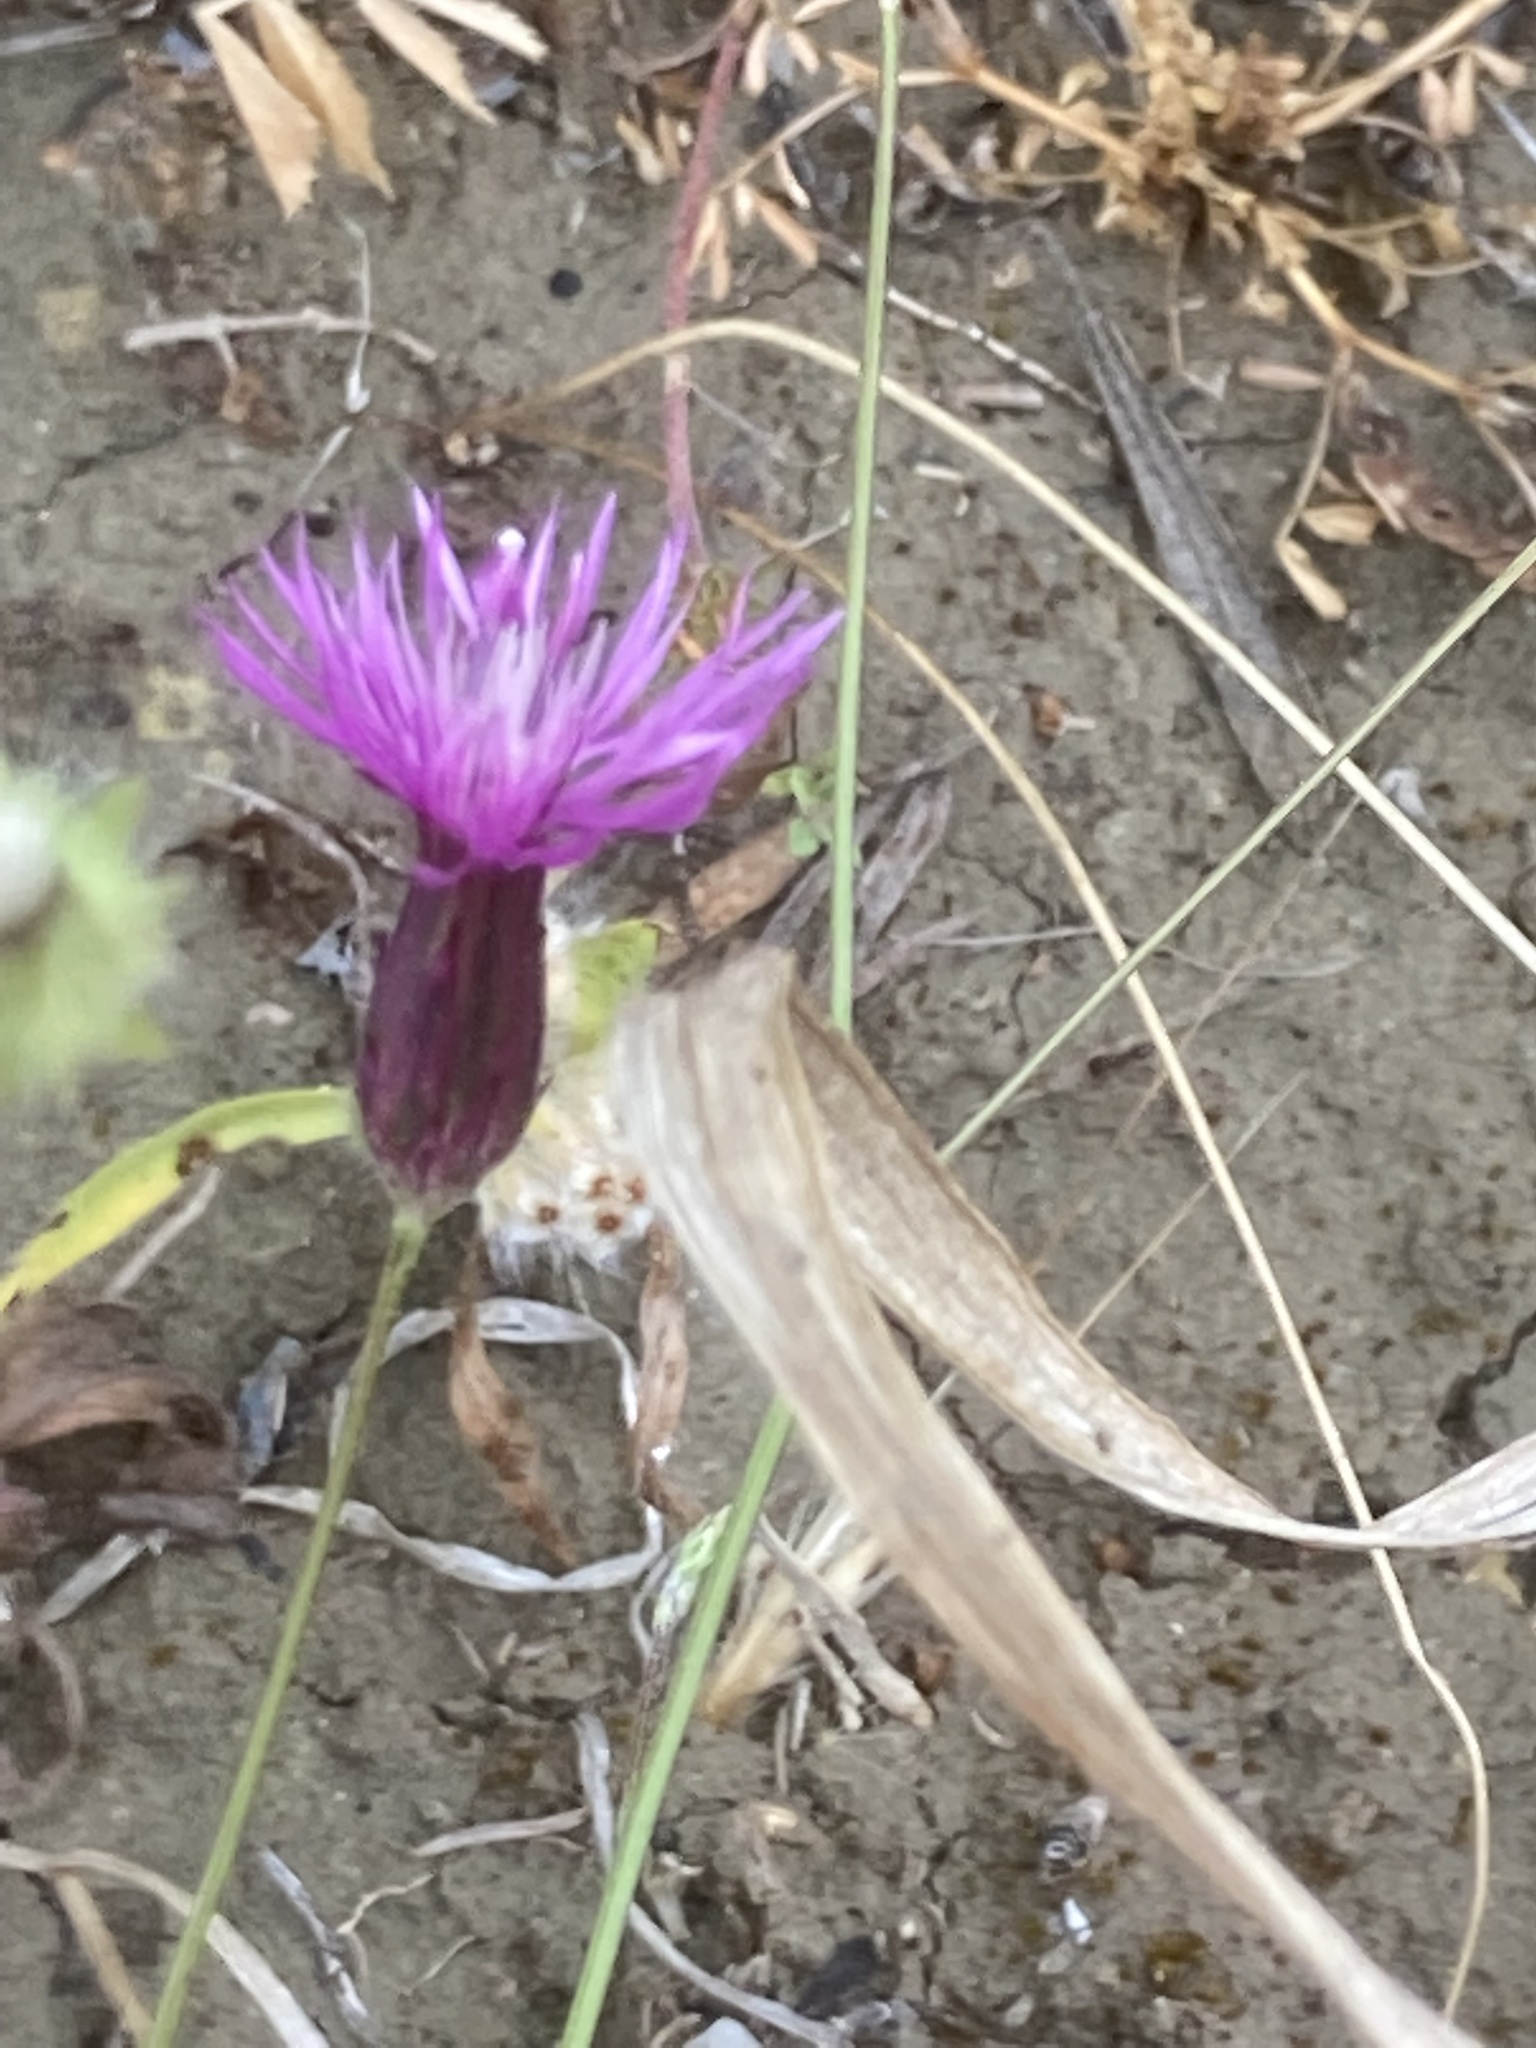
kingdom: Plantae
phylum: Tracheophyta
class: Magnoliopsida
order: Asterales
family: Asteraceae
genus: Crupina
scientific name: Crupina crupinastrum
